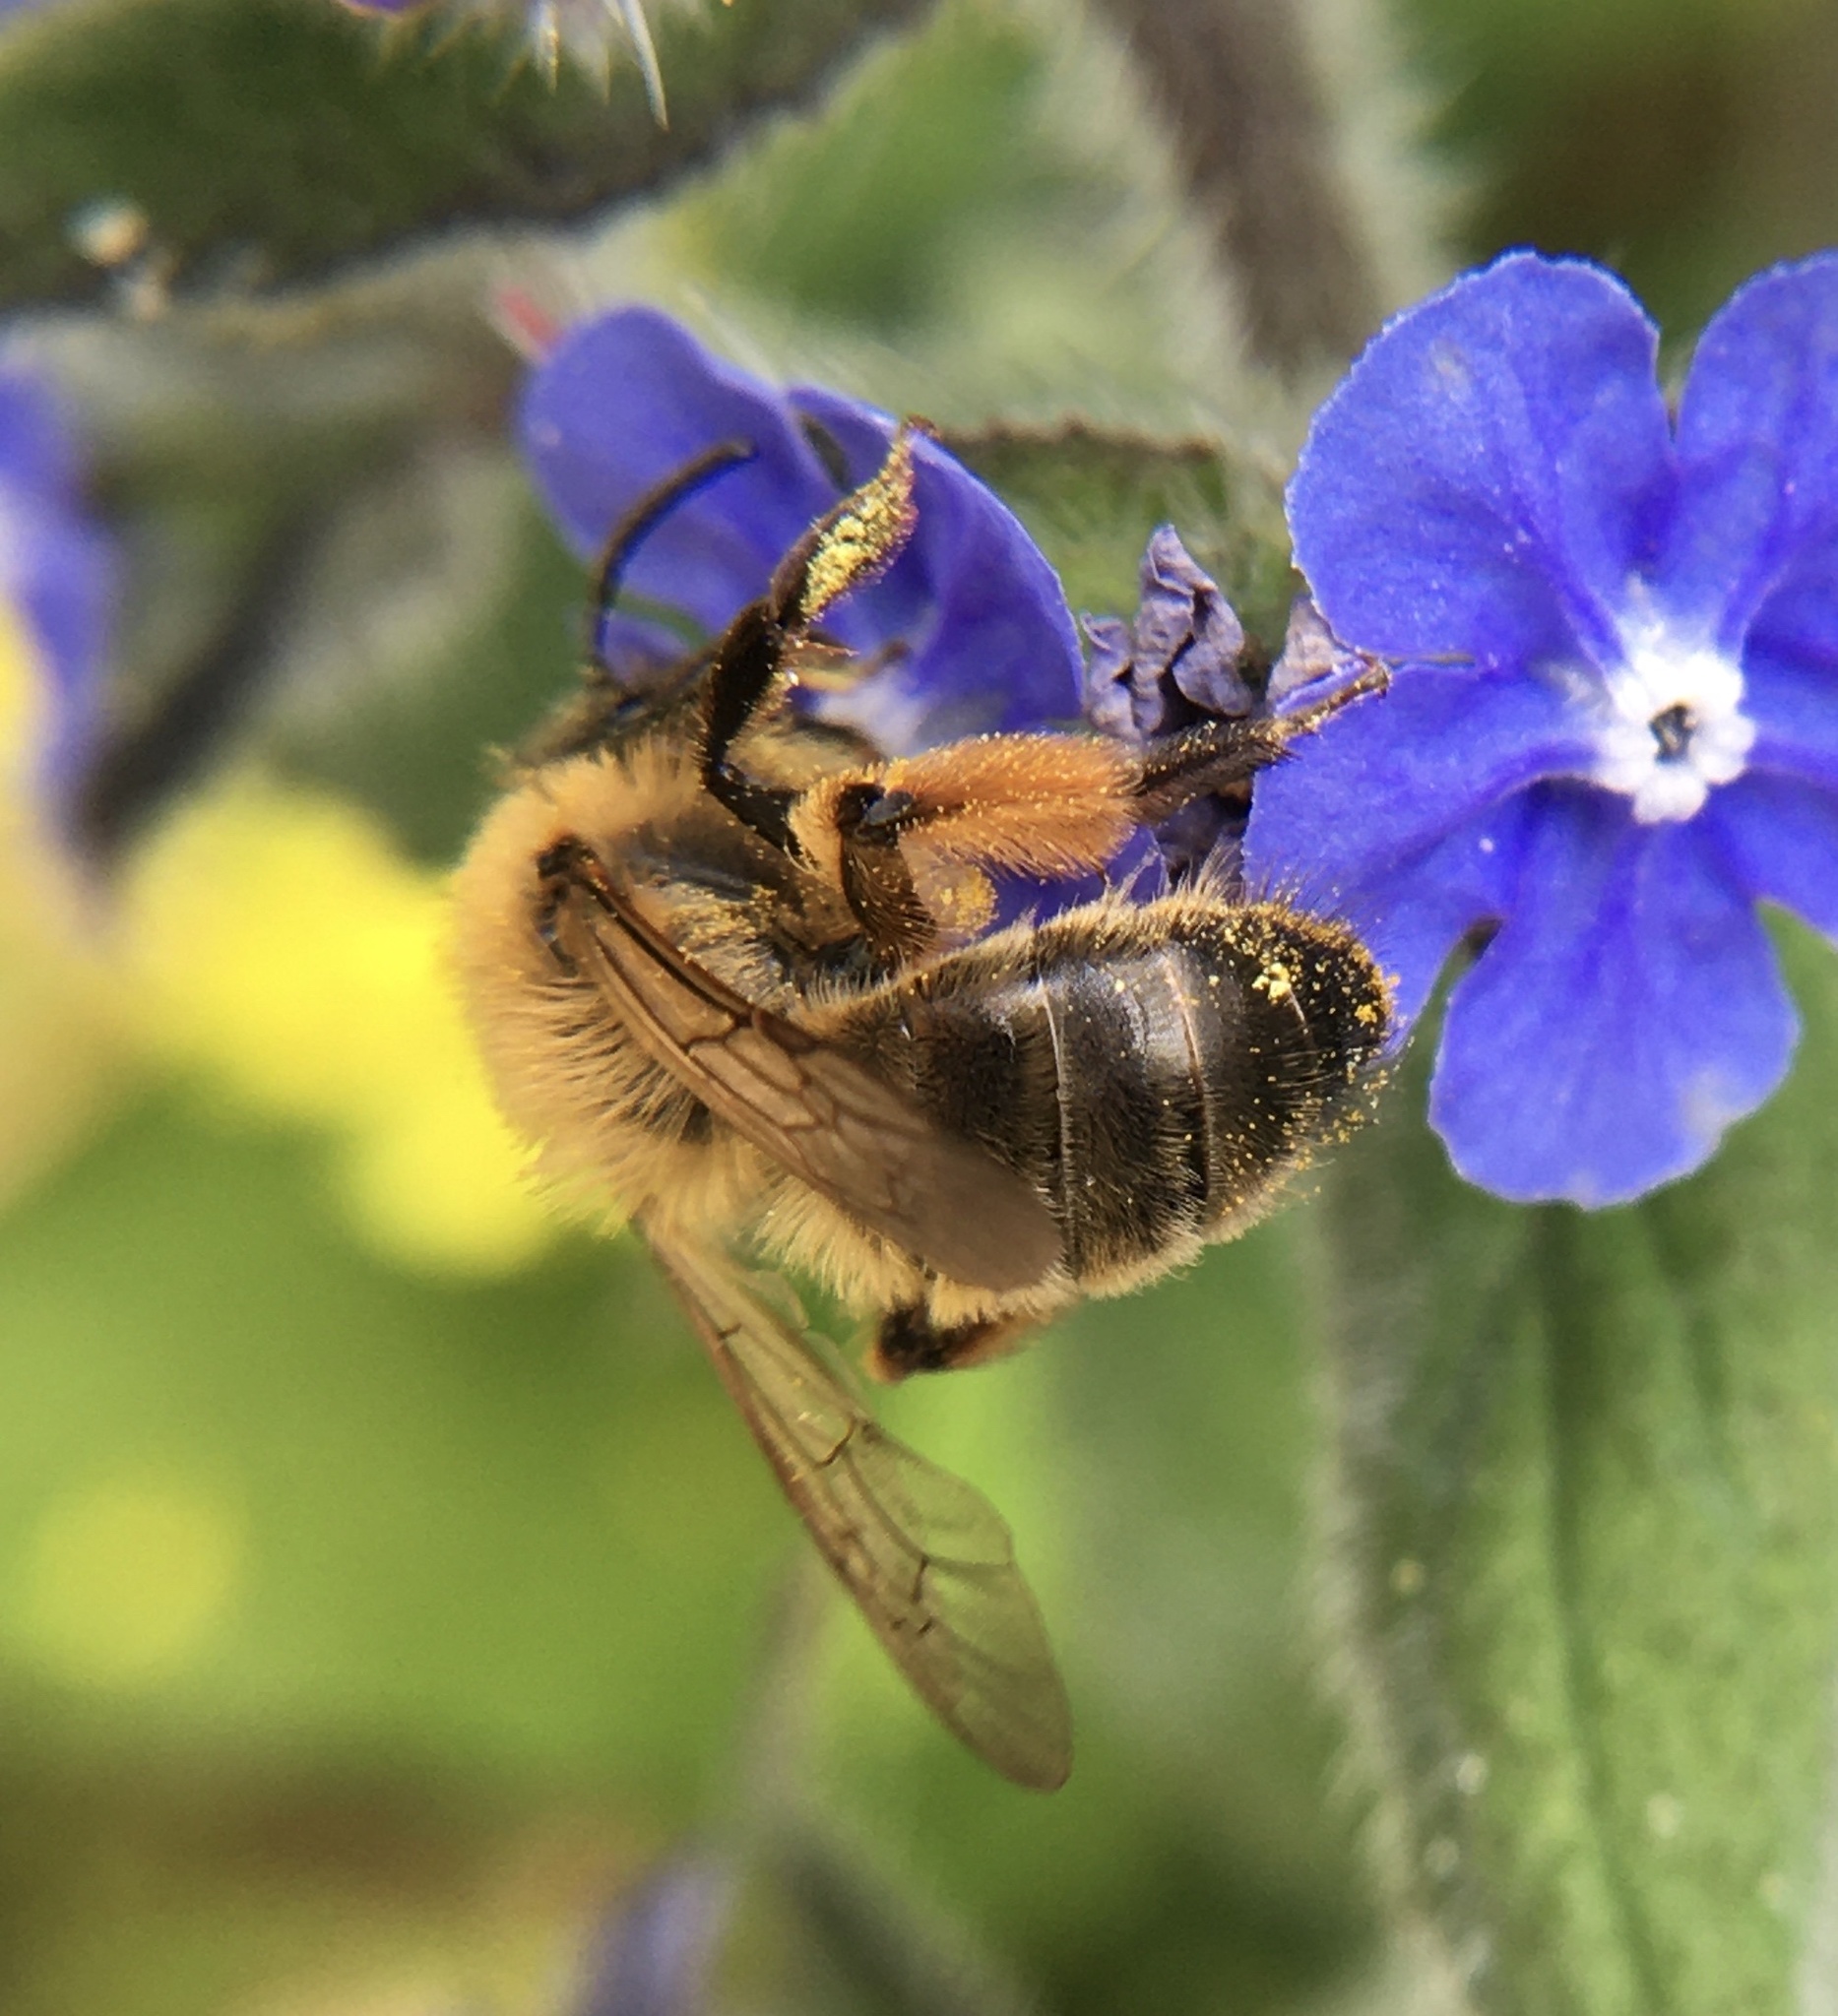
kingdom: Animalia
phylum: Arthropoda
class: Insecta
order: Hymenoptera
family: Andrenidae
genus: Andrena
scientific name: Andrena nigroaenea
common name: Buffish mining bee
